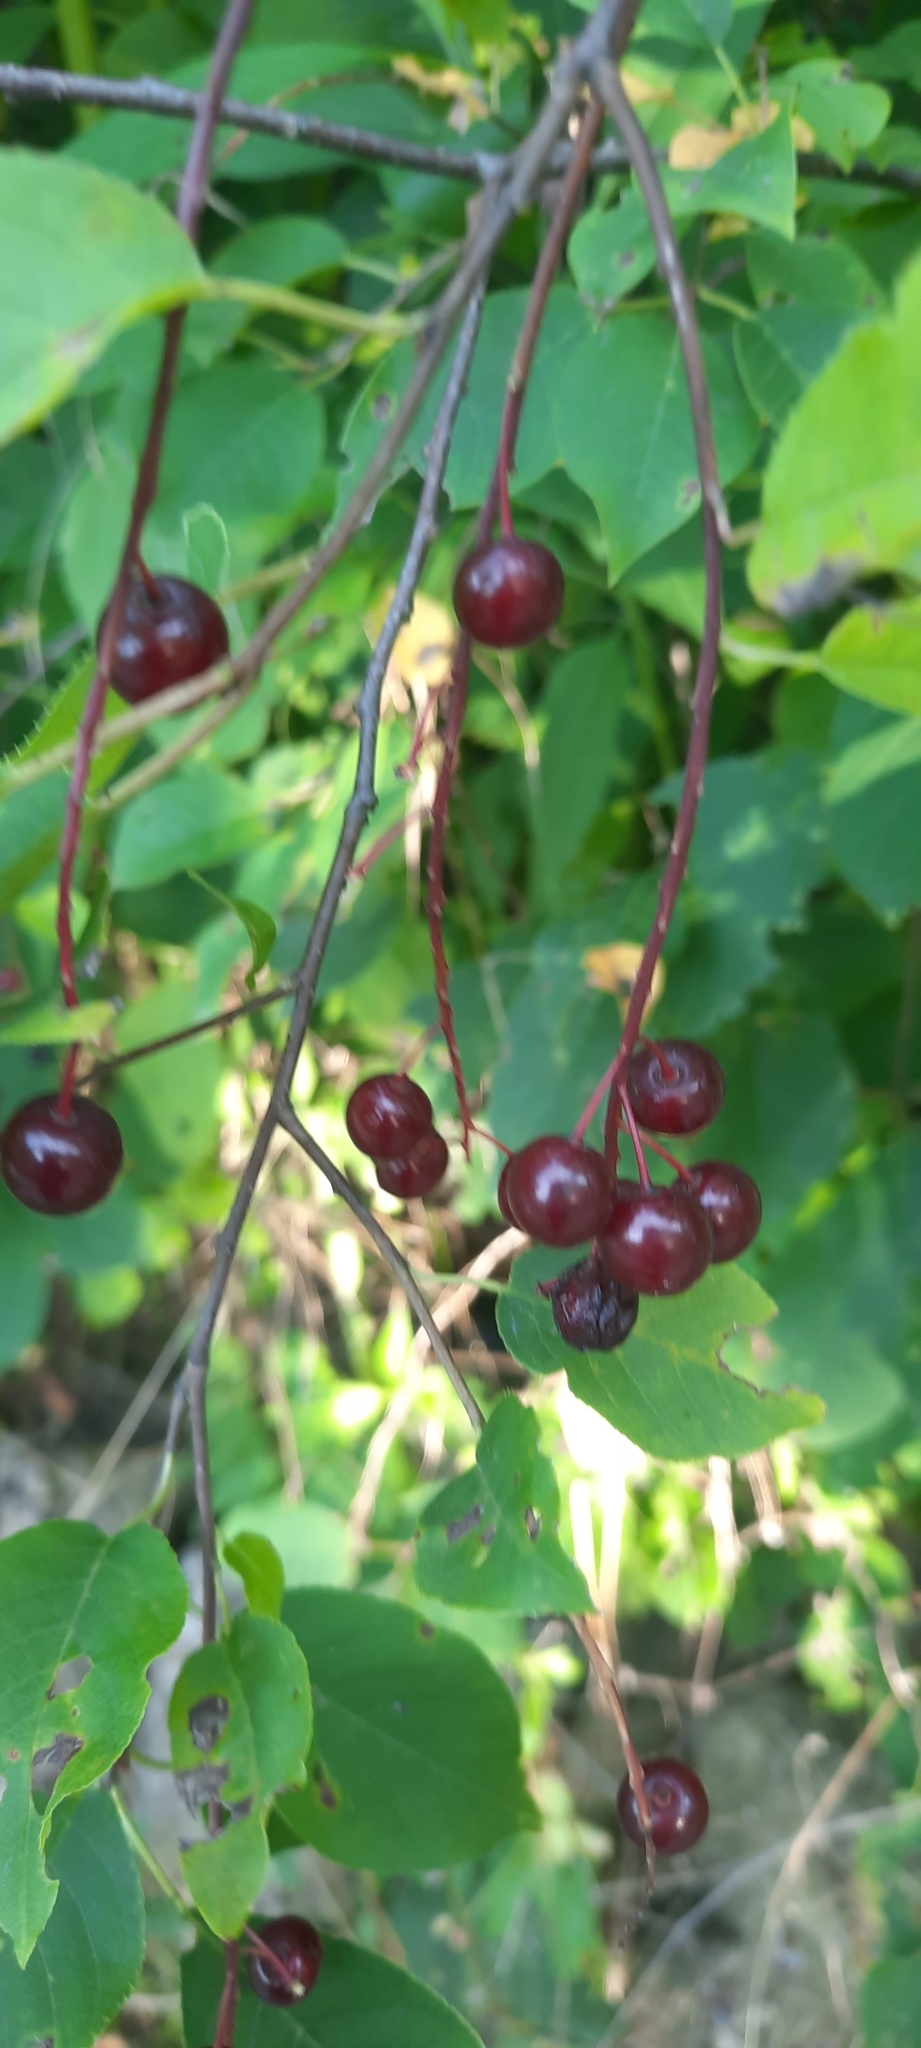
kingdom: Plantae
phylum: Tracheophyta
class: Magnoliopsida
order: Rosales
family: Rosaceae
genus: Prunus
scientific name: Prunus mahaleb
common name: Mahaleb cherry
